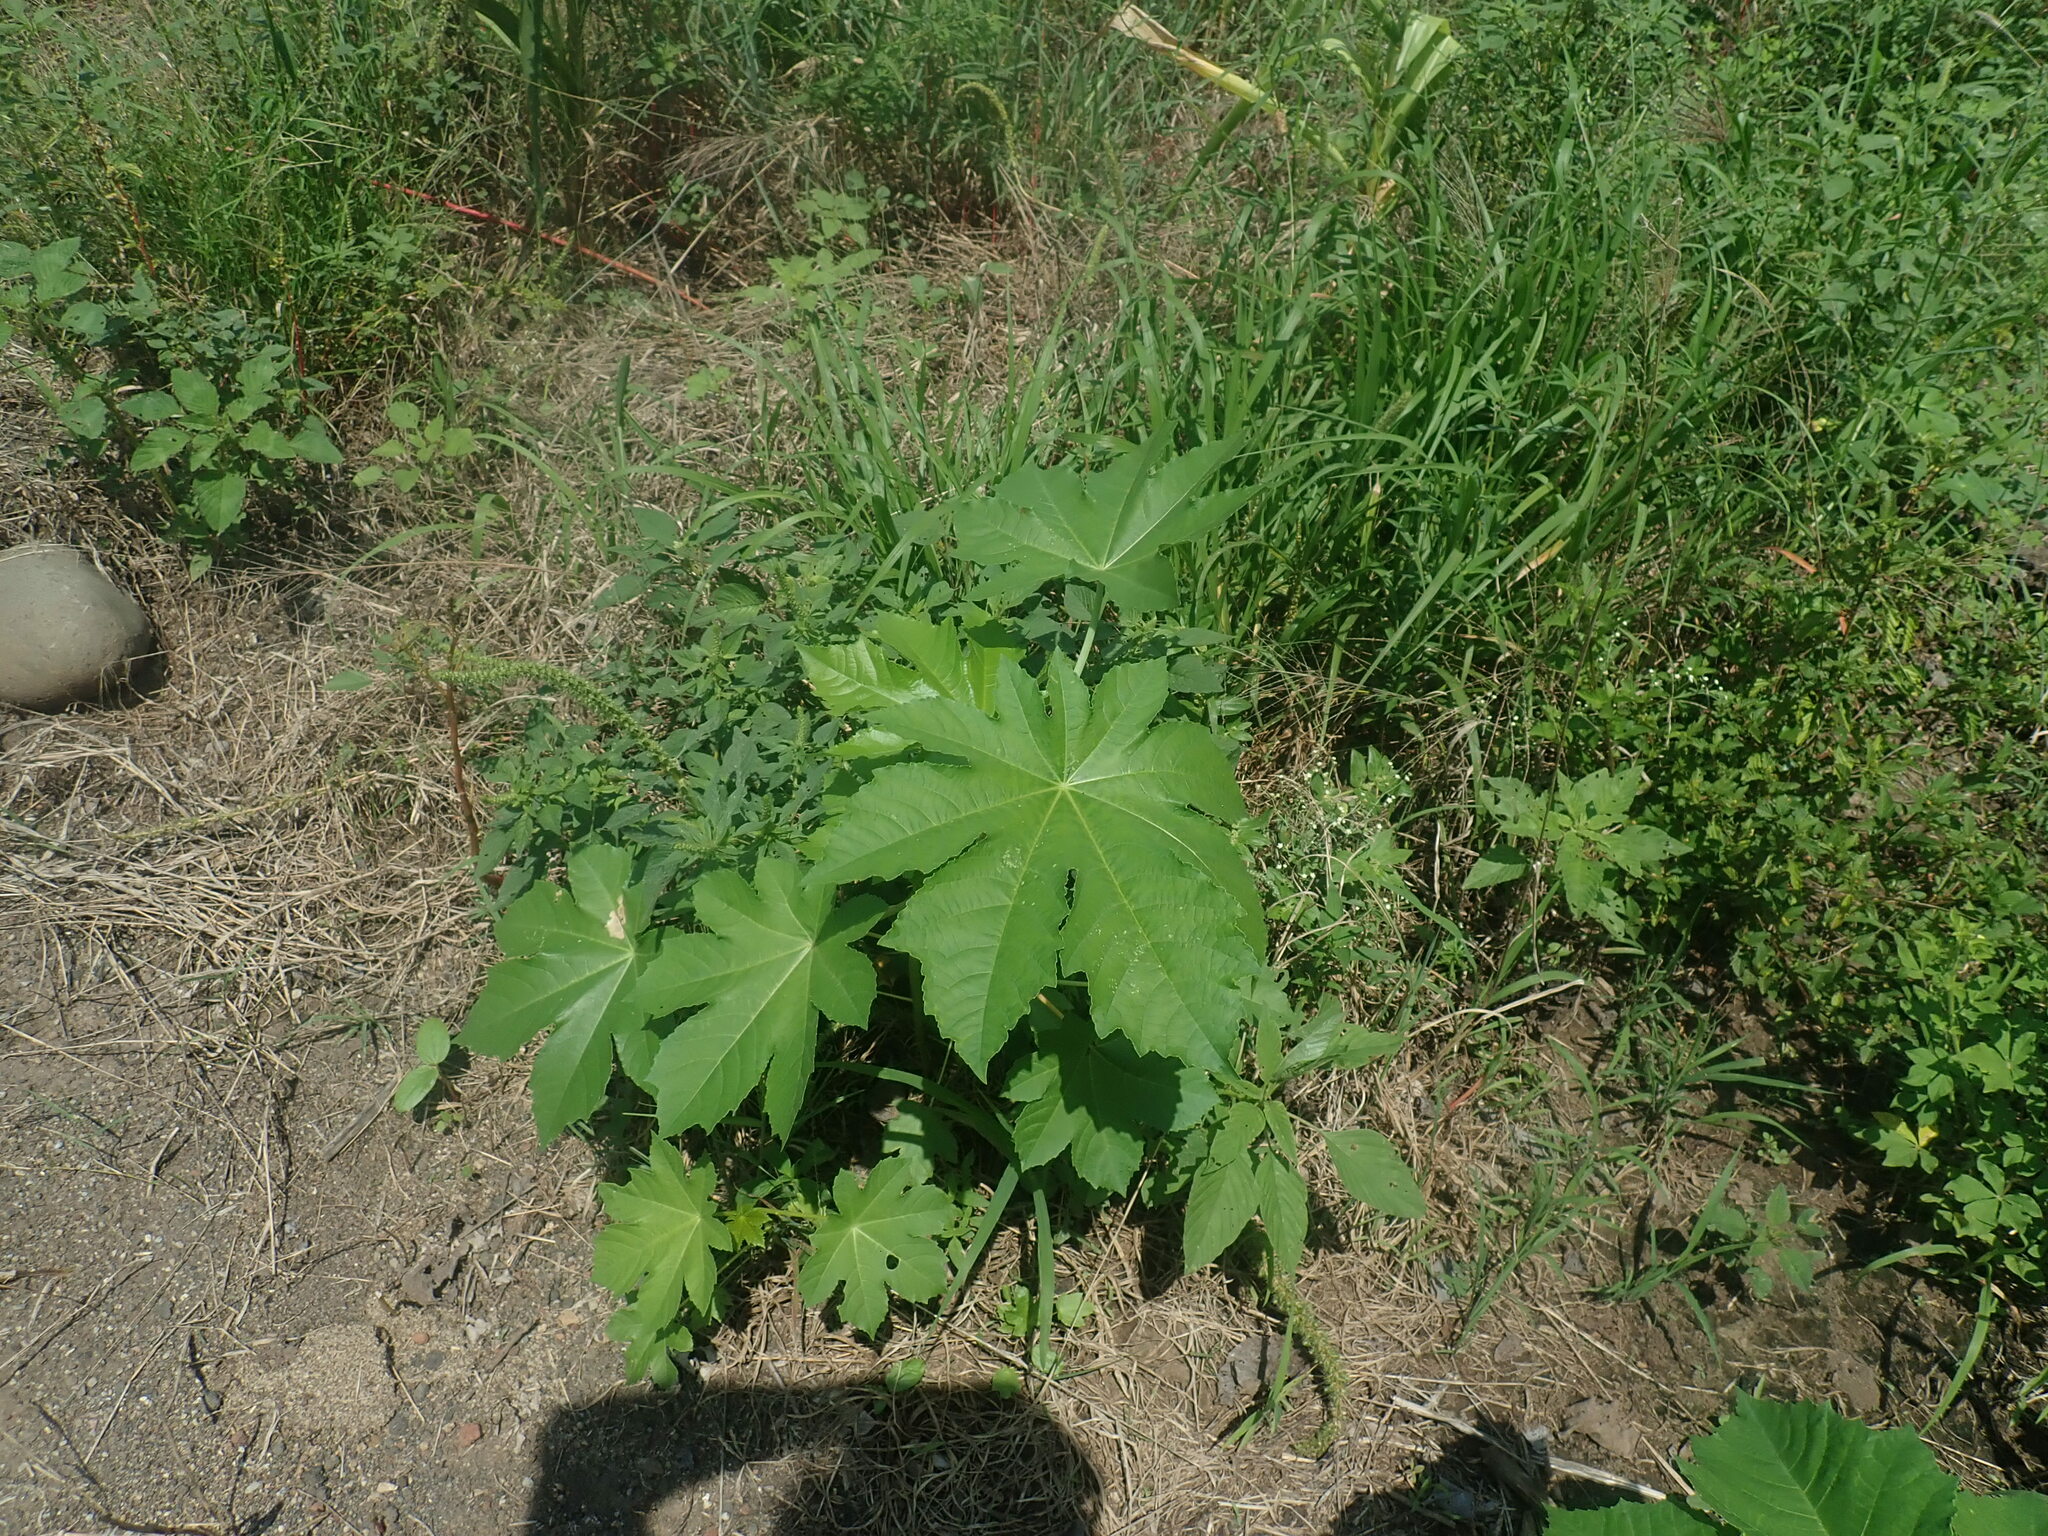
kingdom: Plantae
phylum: Tracheophyta
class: Magnoliopsida
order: Malpighiales
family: Euphorbiaceae
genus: Ricinus
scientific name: Ricinus communis
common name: Castor-oil-plant
